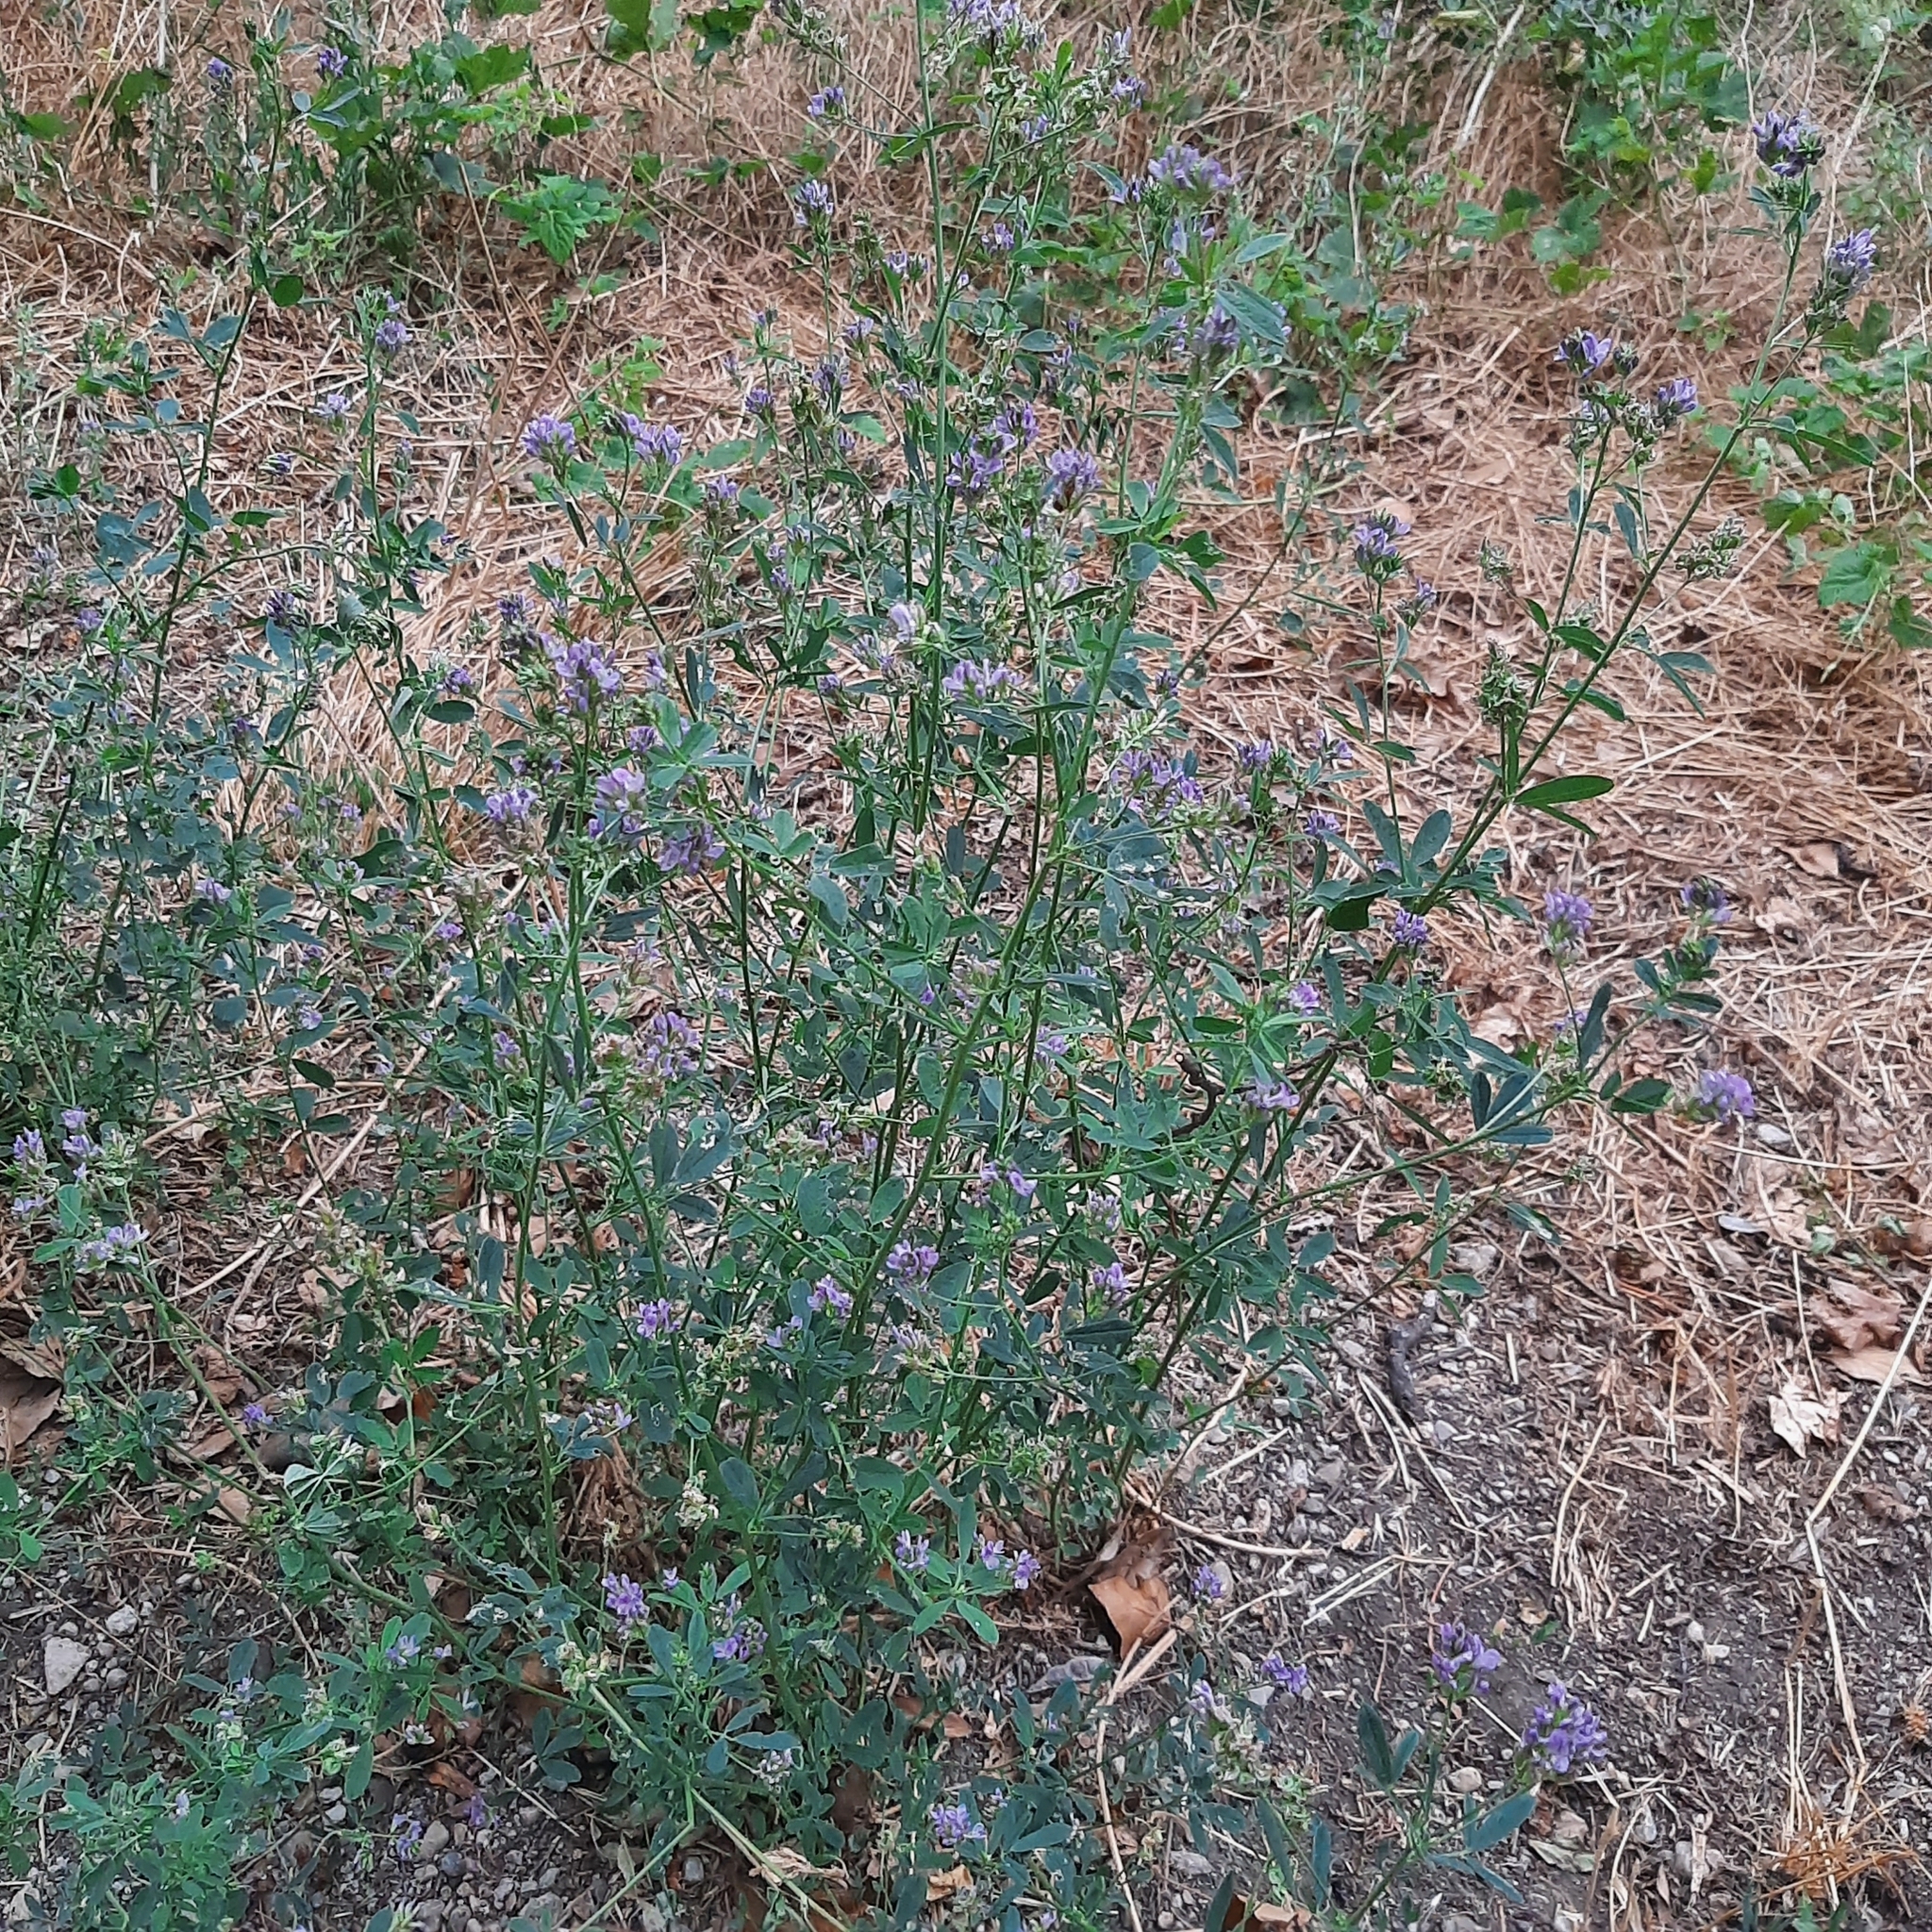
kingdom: Plantae
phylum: Tracheophyta
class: Magnoliopsida
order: Fabales
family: Fabaceae
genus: Medicago
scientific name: Medicago sativa
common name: Alfalfa
